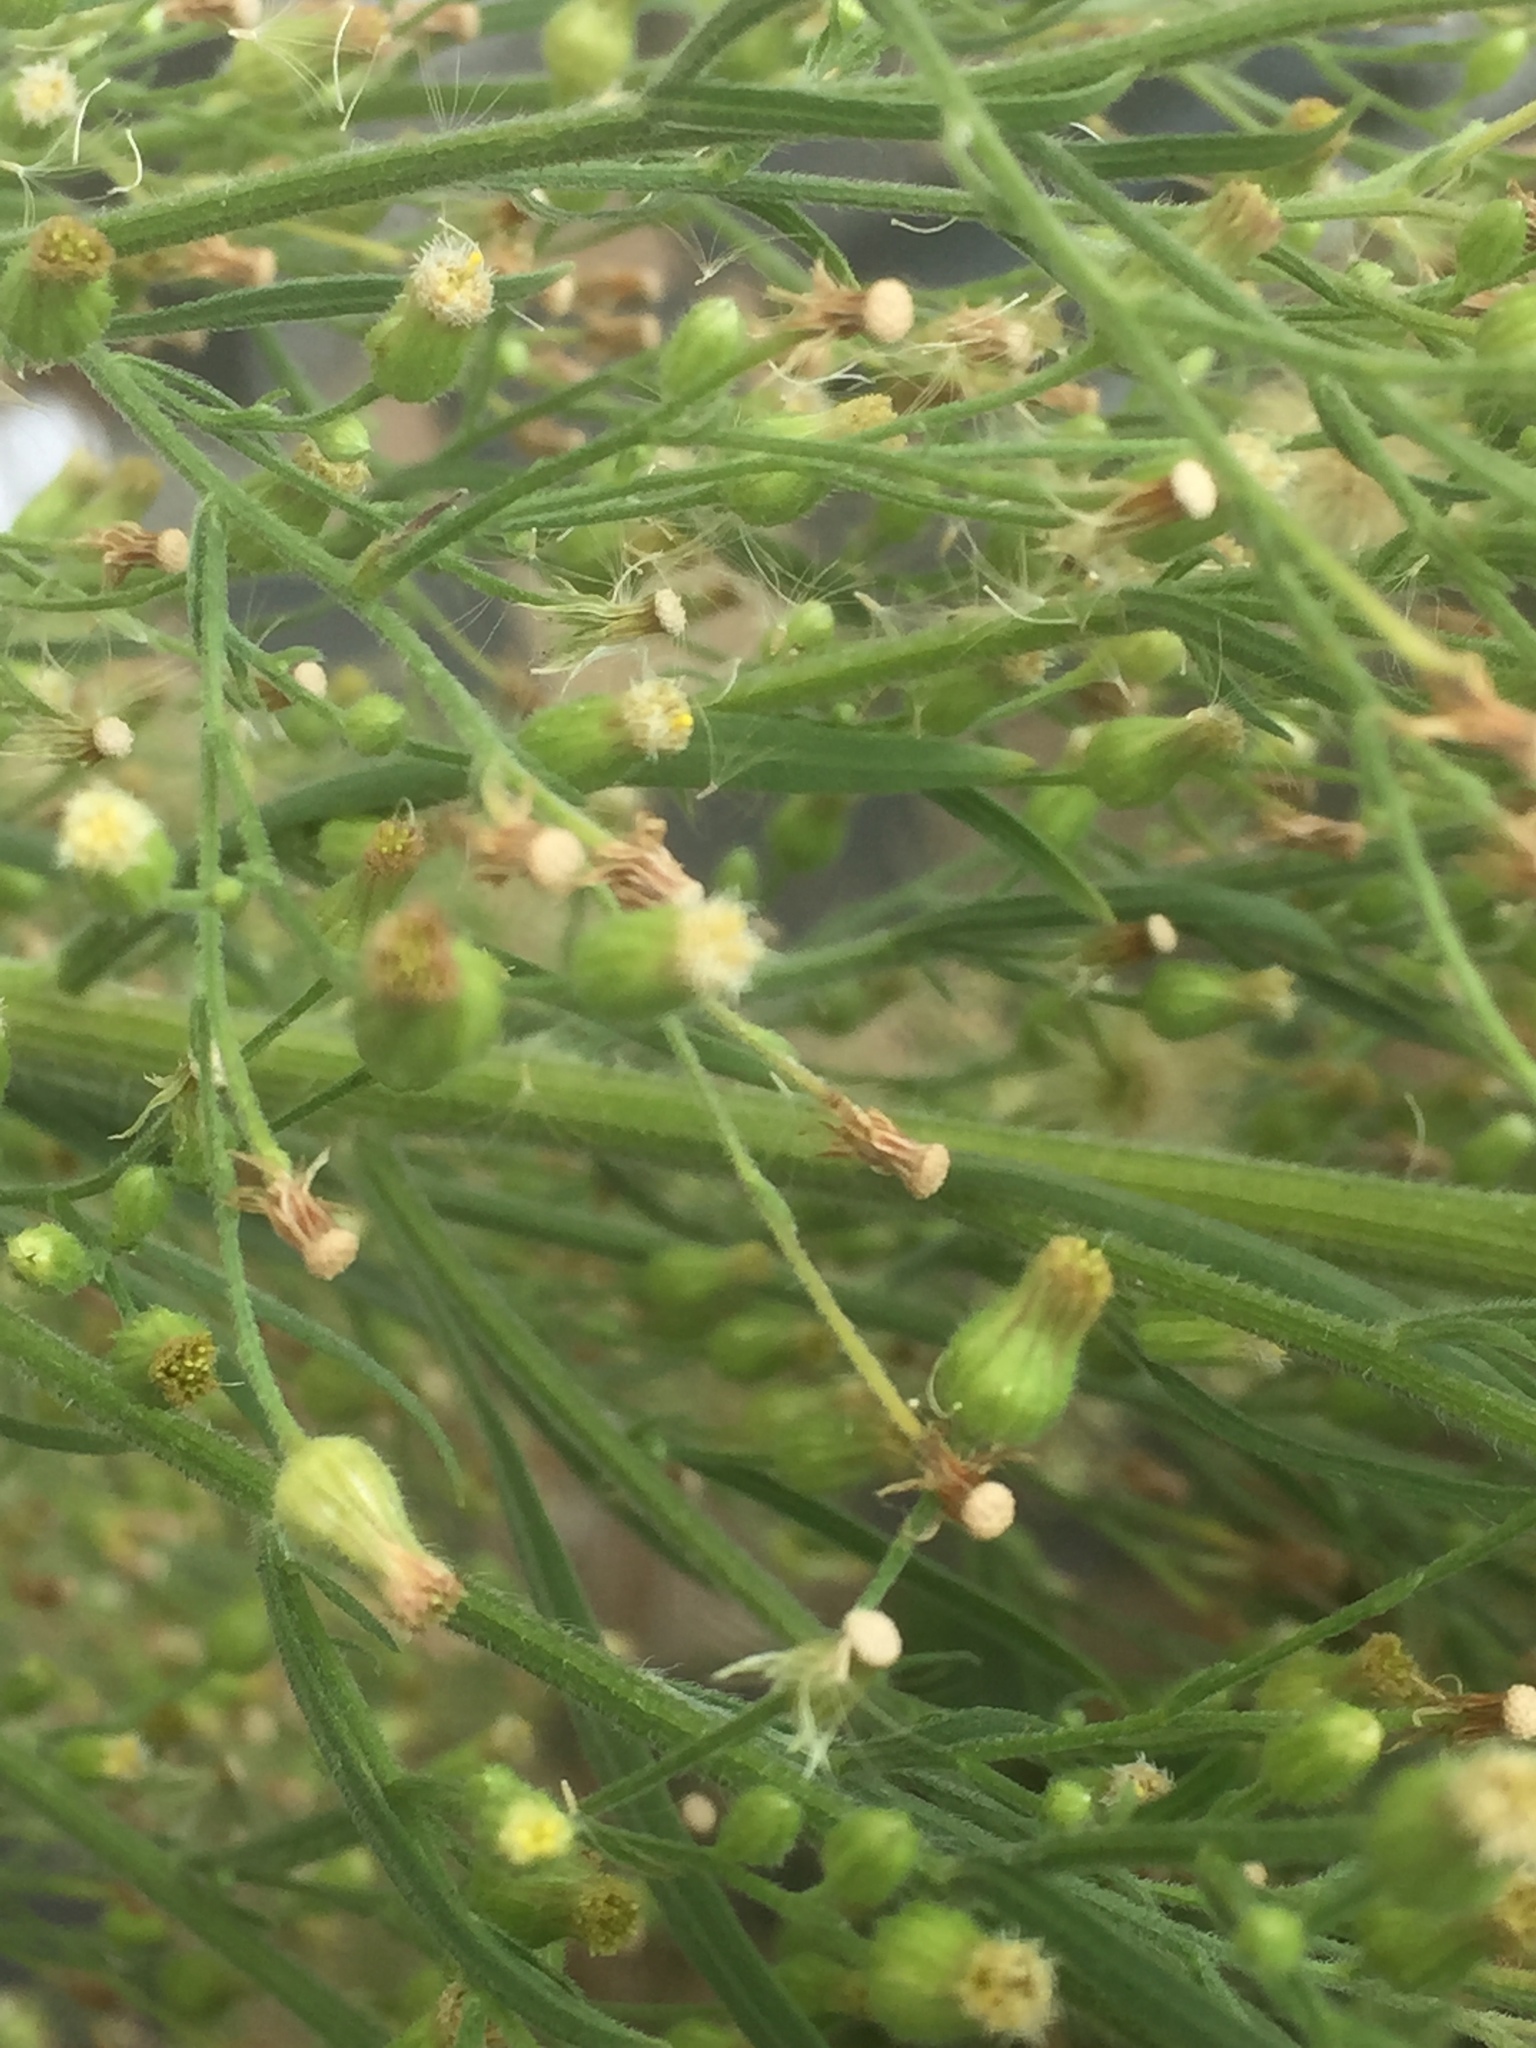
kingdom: Plantae
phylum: Tracheophyta
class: Magnoliopsida
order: Asterales
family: Asteraceae
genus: Erigeron
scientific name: Erigeron canadensis
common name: Canadian fleabane
